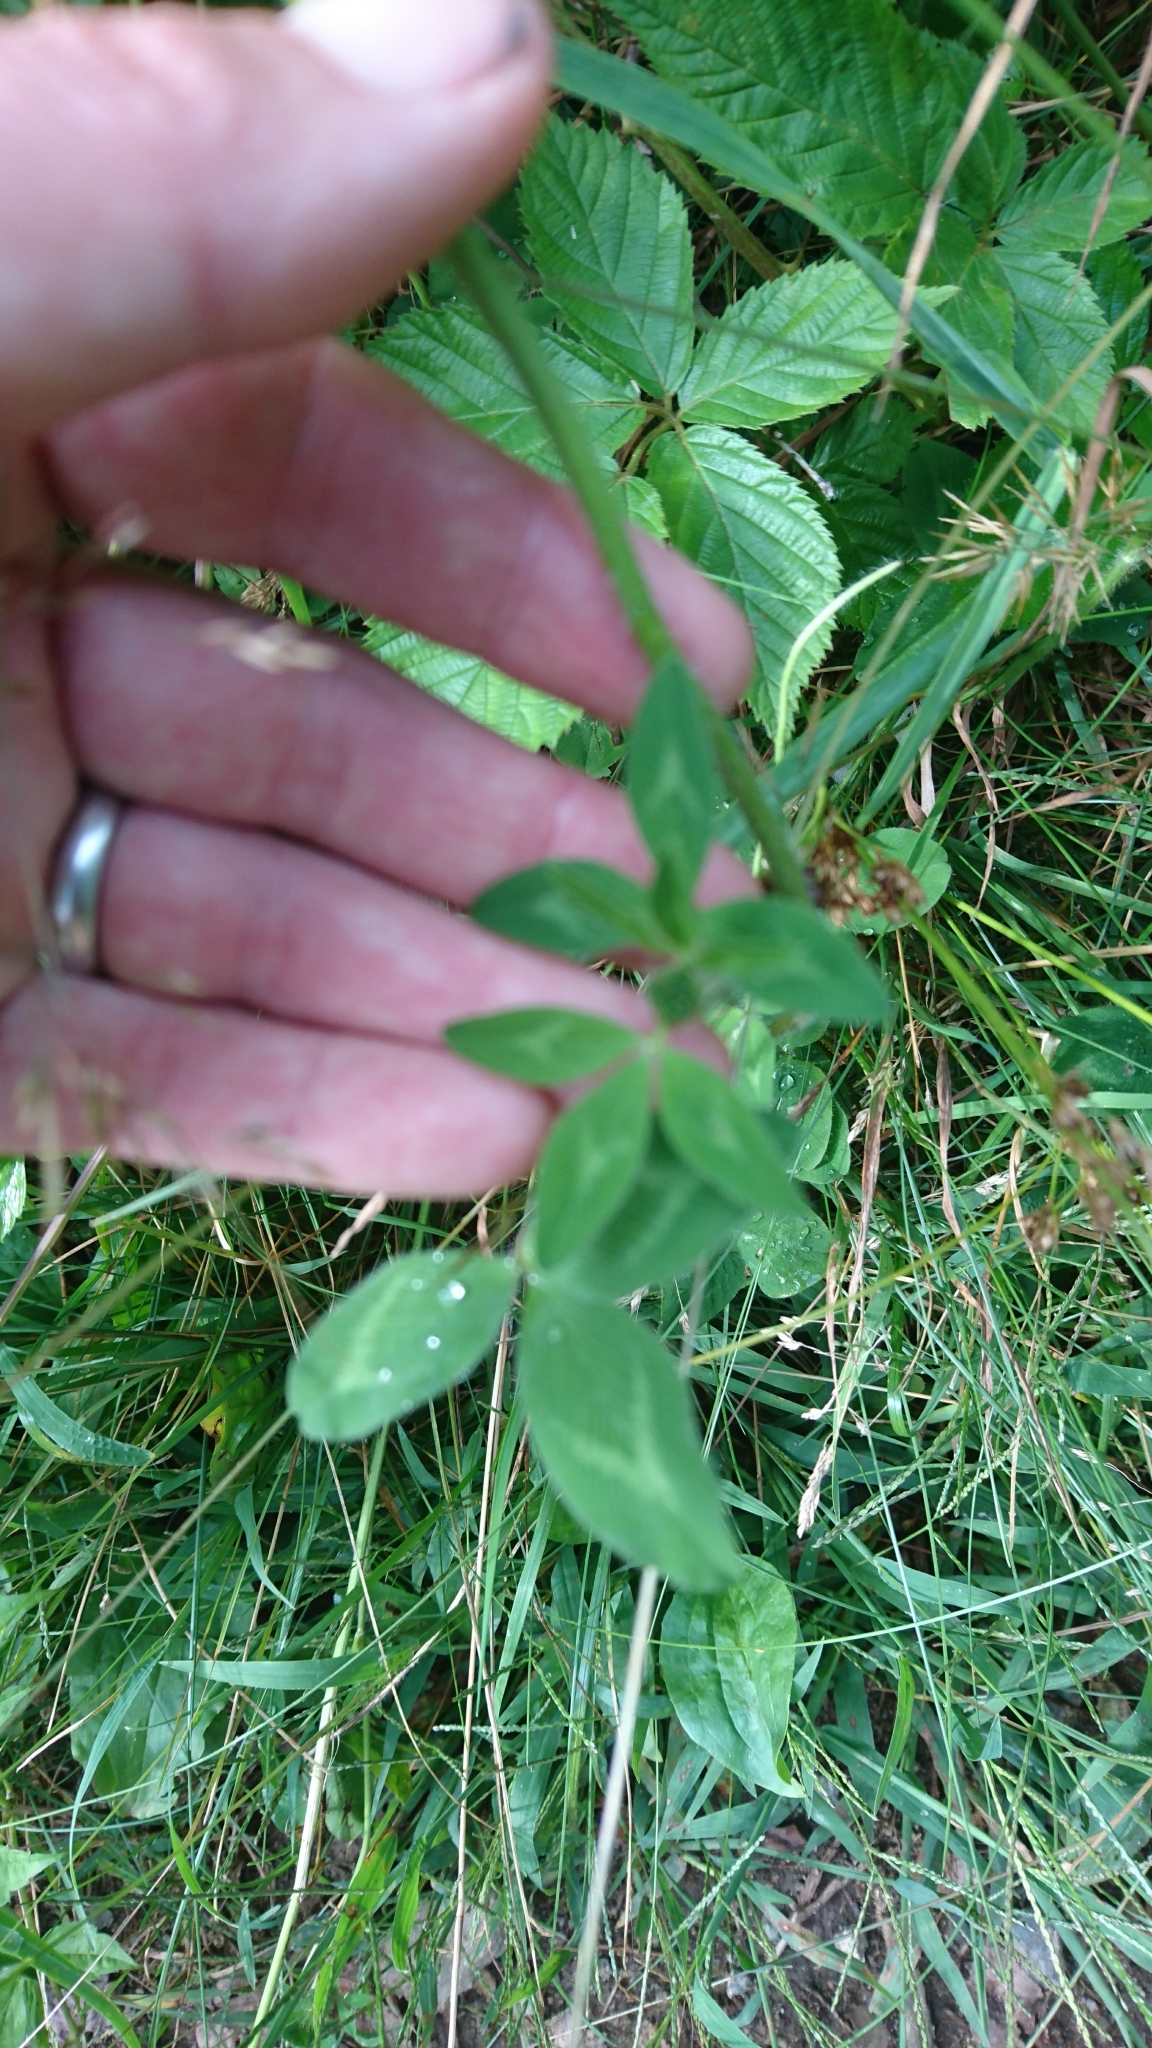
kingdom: Plantae
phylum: Tracheophyta
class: Magnoliopsida
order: Fabales
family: Fabaceae
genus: Trifolium
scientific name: Trifolium pratense
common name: Red clover
